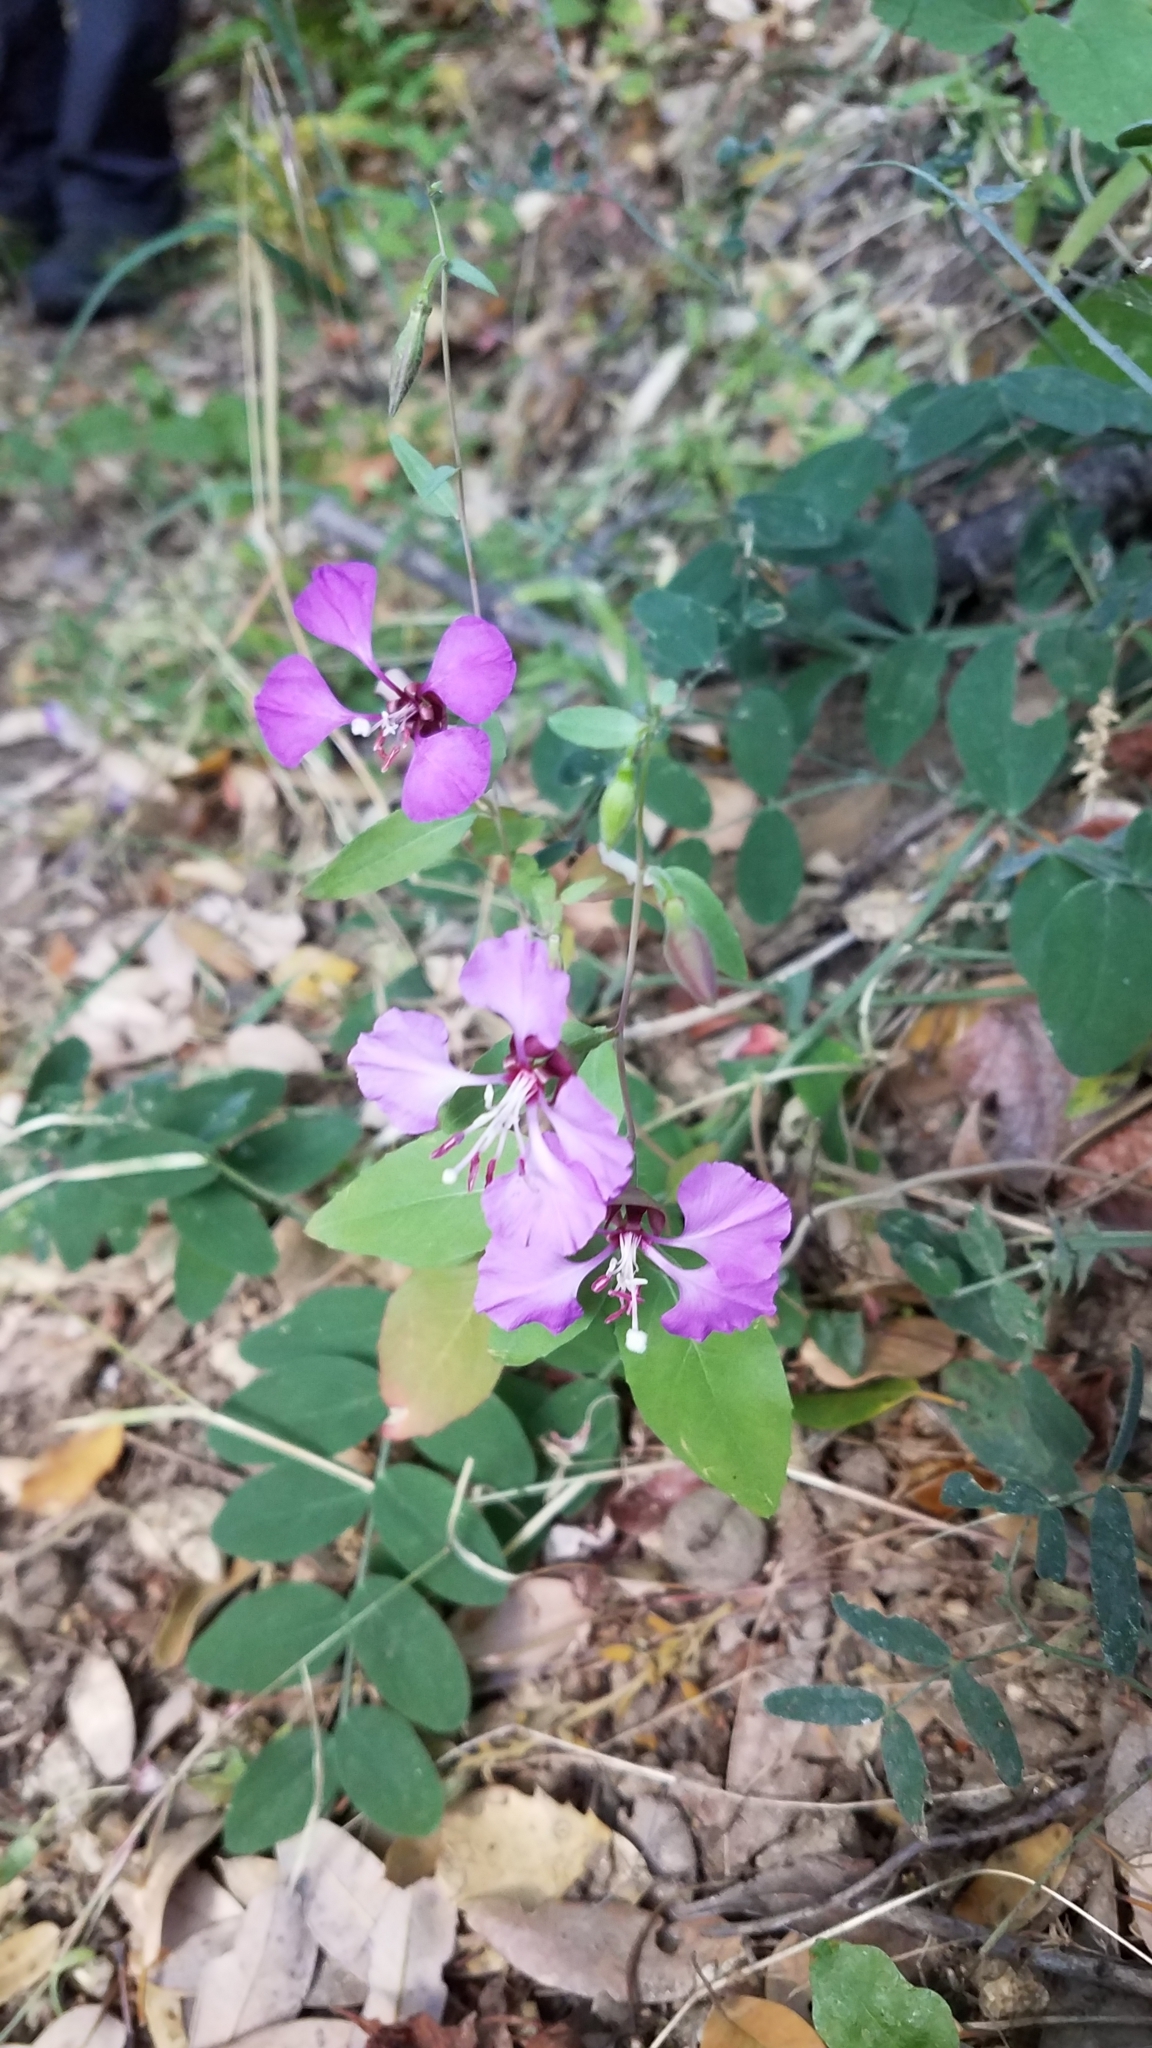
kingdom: Plantae
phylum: Tracheophyta
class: Magnoliopsida
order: Myrtales
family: Onagraceae
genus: Clarkia
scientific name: Clarkia unguiculata
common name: Clarkia
